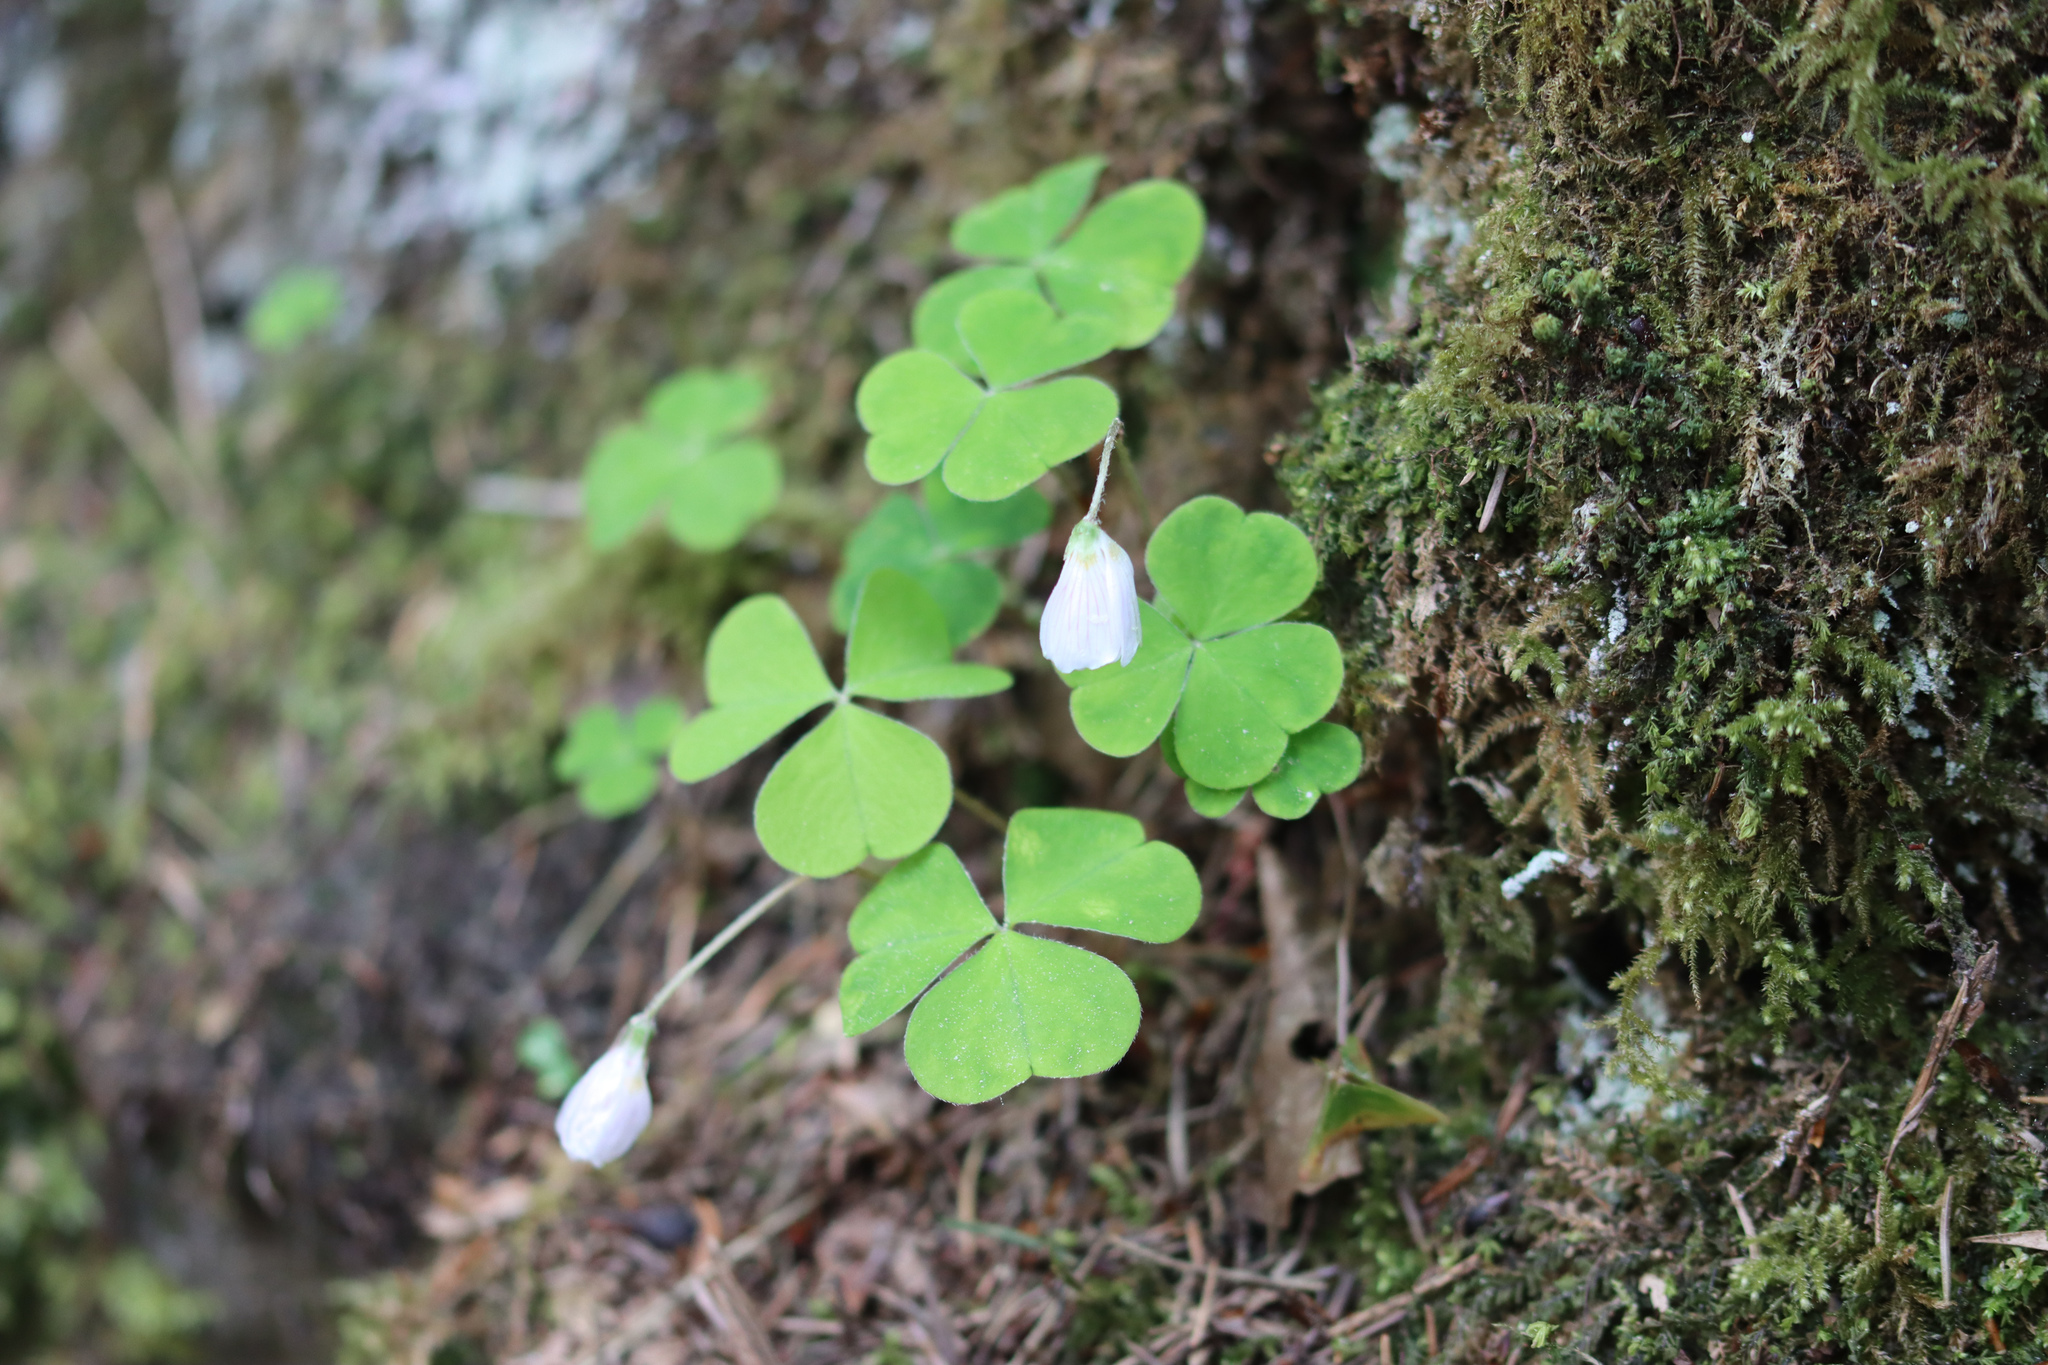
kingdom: Plantae
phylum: Tracheophyta
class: Magnoliopsida
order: Oxalidales
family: Oxalidaceae
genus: Oxalis
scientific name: Oxalis acetosella
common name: Wood-sorrel
